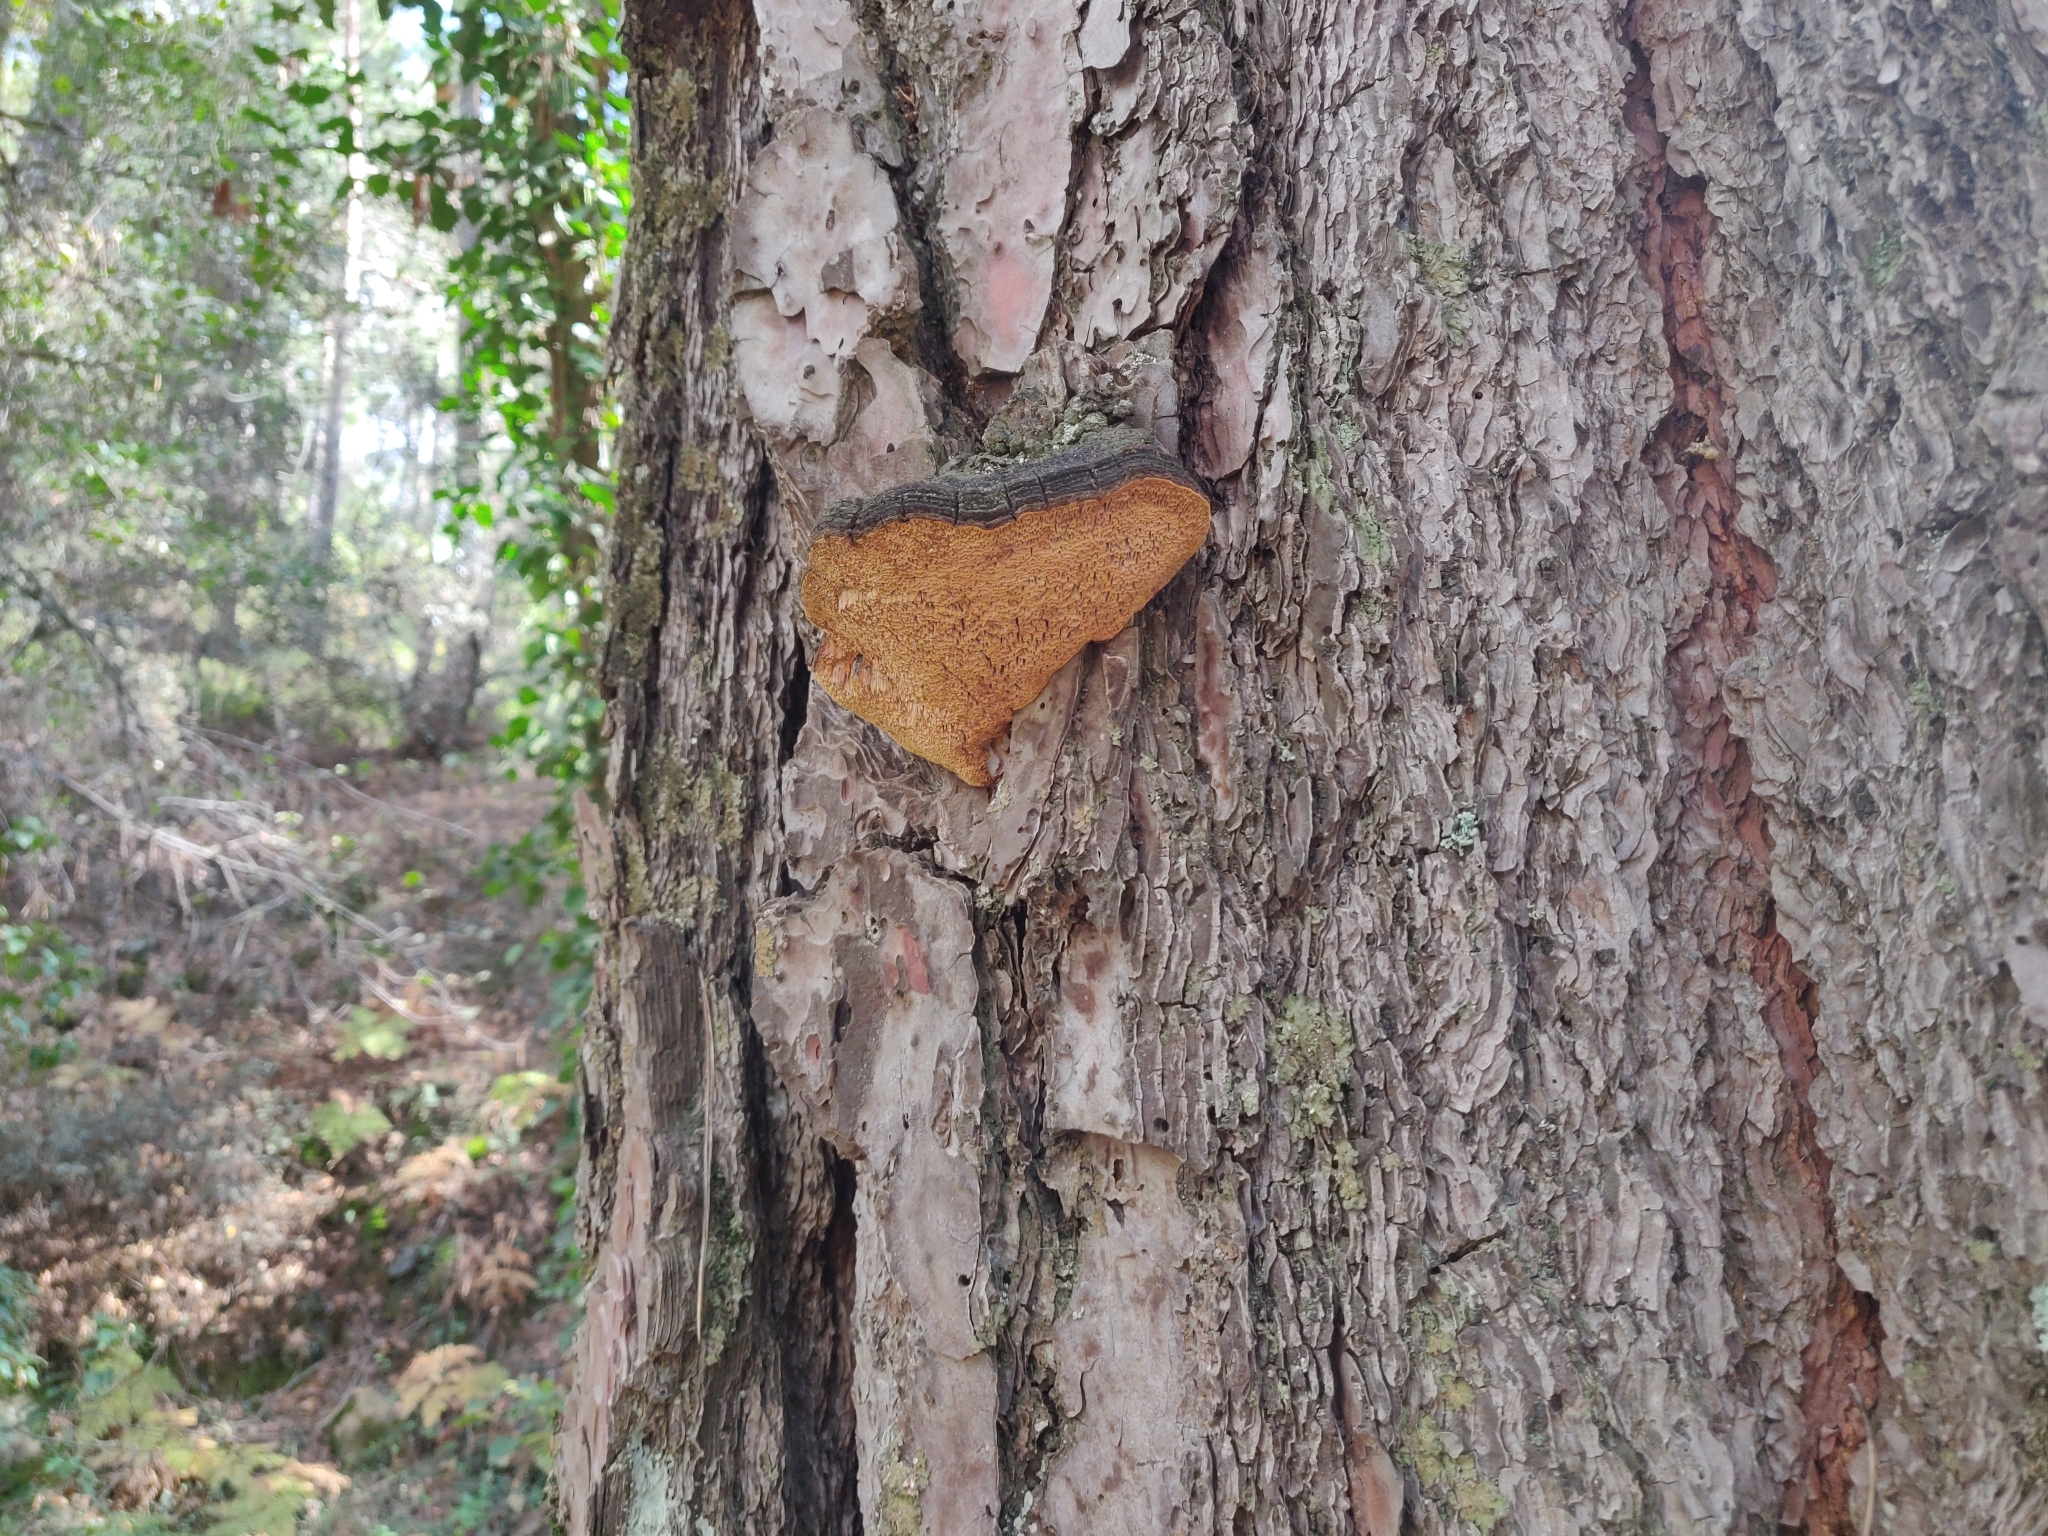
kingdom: Fungi
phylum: Basidiomycota
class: Agaricomycetes
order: Hymenochaetales
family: Hymenochaetaceae
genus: Porodaedalea
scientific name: Porodaedalea pini
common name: Pine bracket
